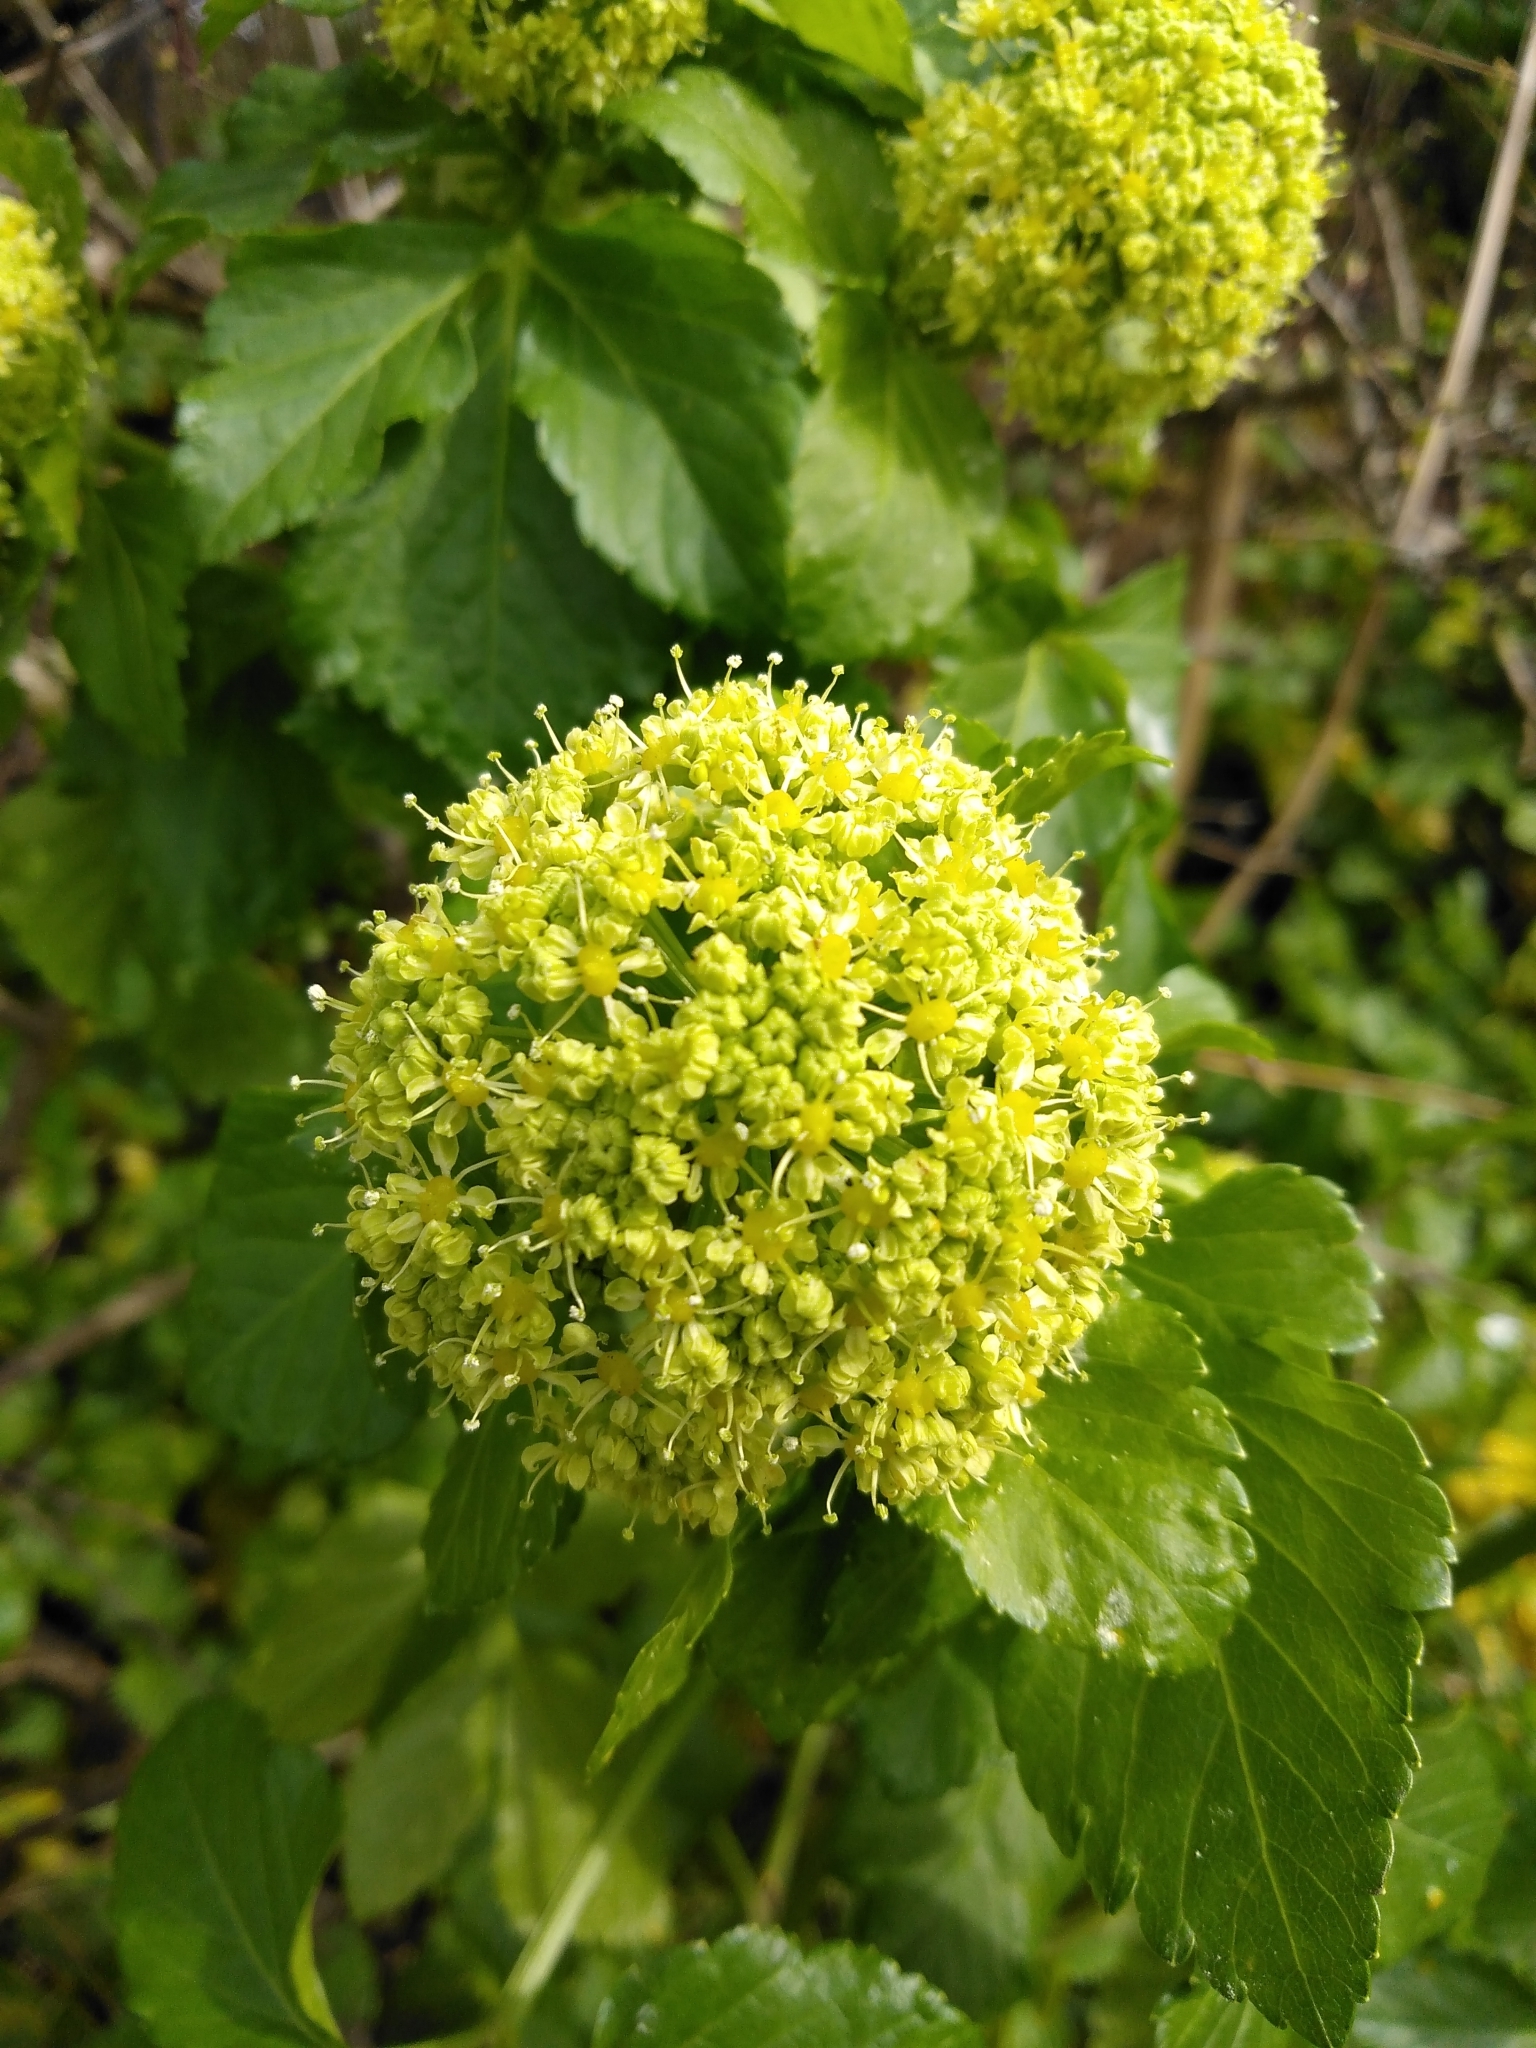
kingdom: Plantae
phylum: Tracheophyta
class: Magnoliopsida
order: Apiales
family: Apiaceae
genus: Smyrnium
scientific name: Smyrnium olusatrum
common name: Alexanders
